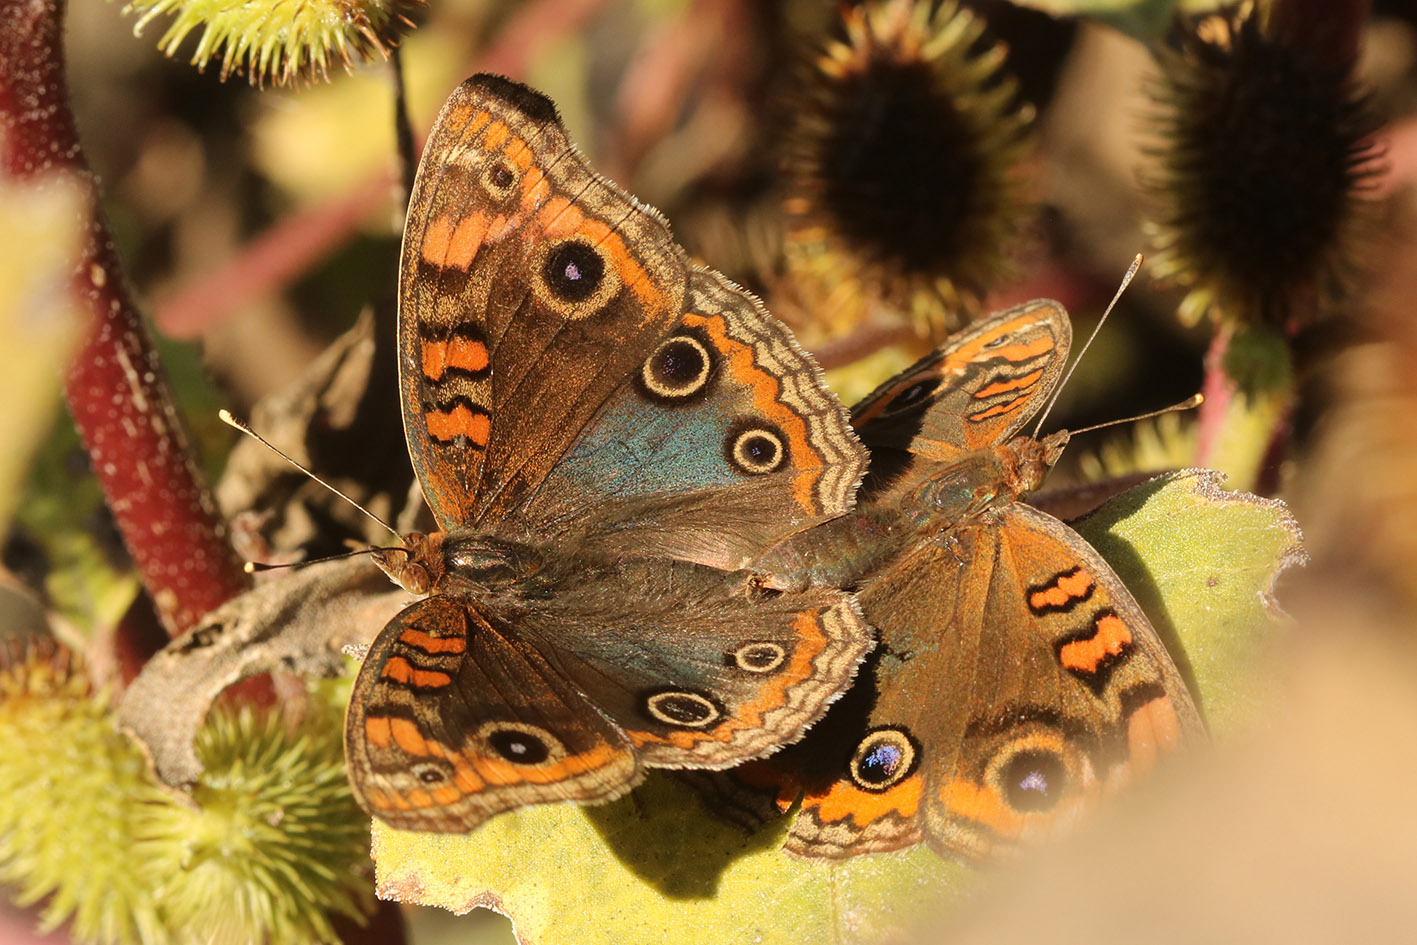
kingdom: Animalia
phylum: Arthropoda
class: Insecta
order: Lepidoptera
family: Nymphalidae
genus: Junonia
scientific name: Junonia lavinia
